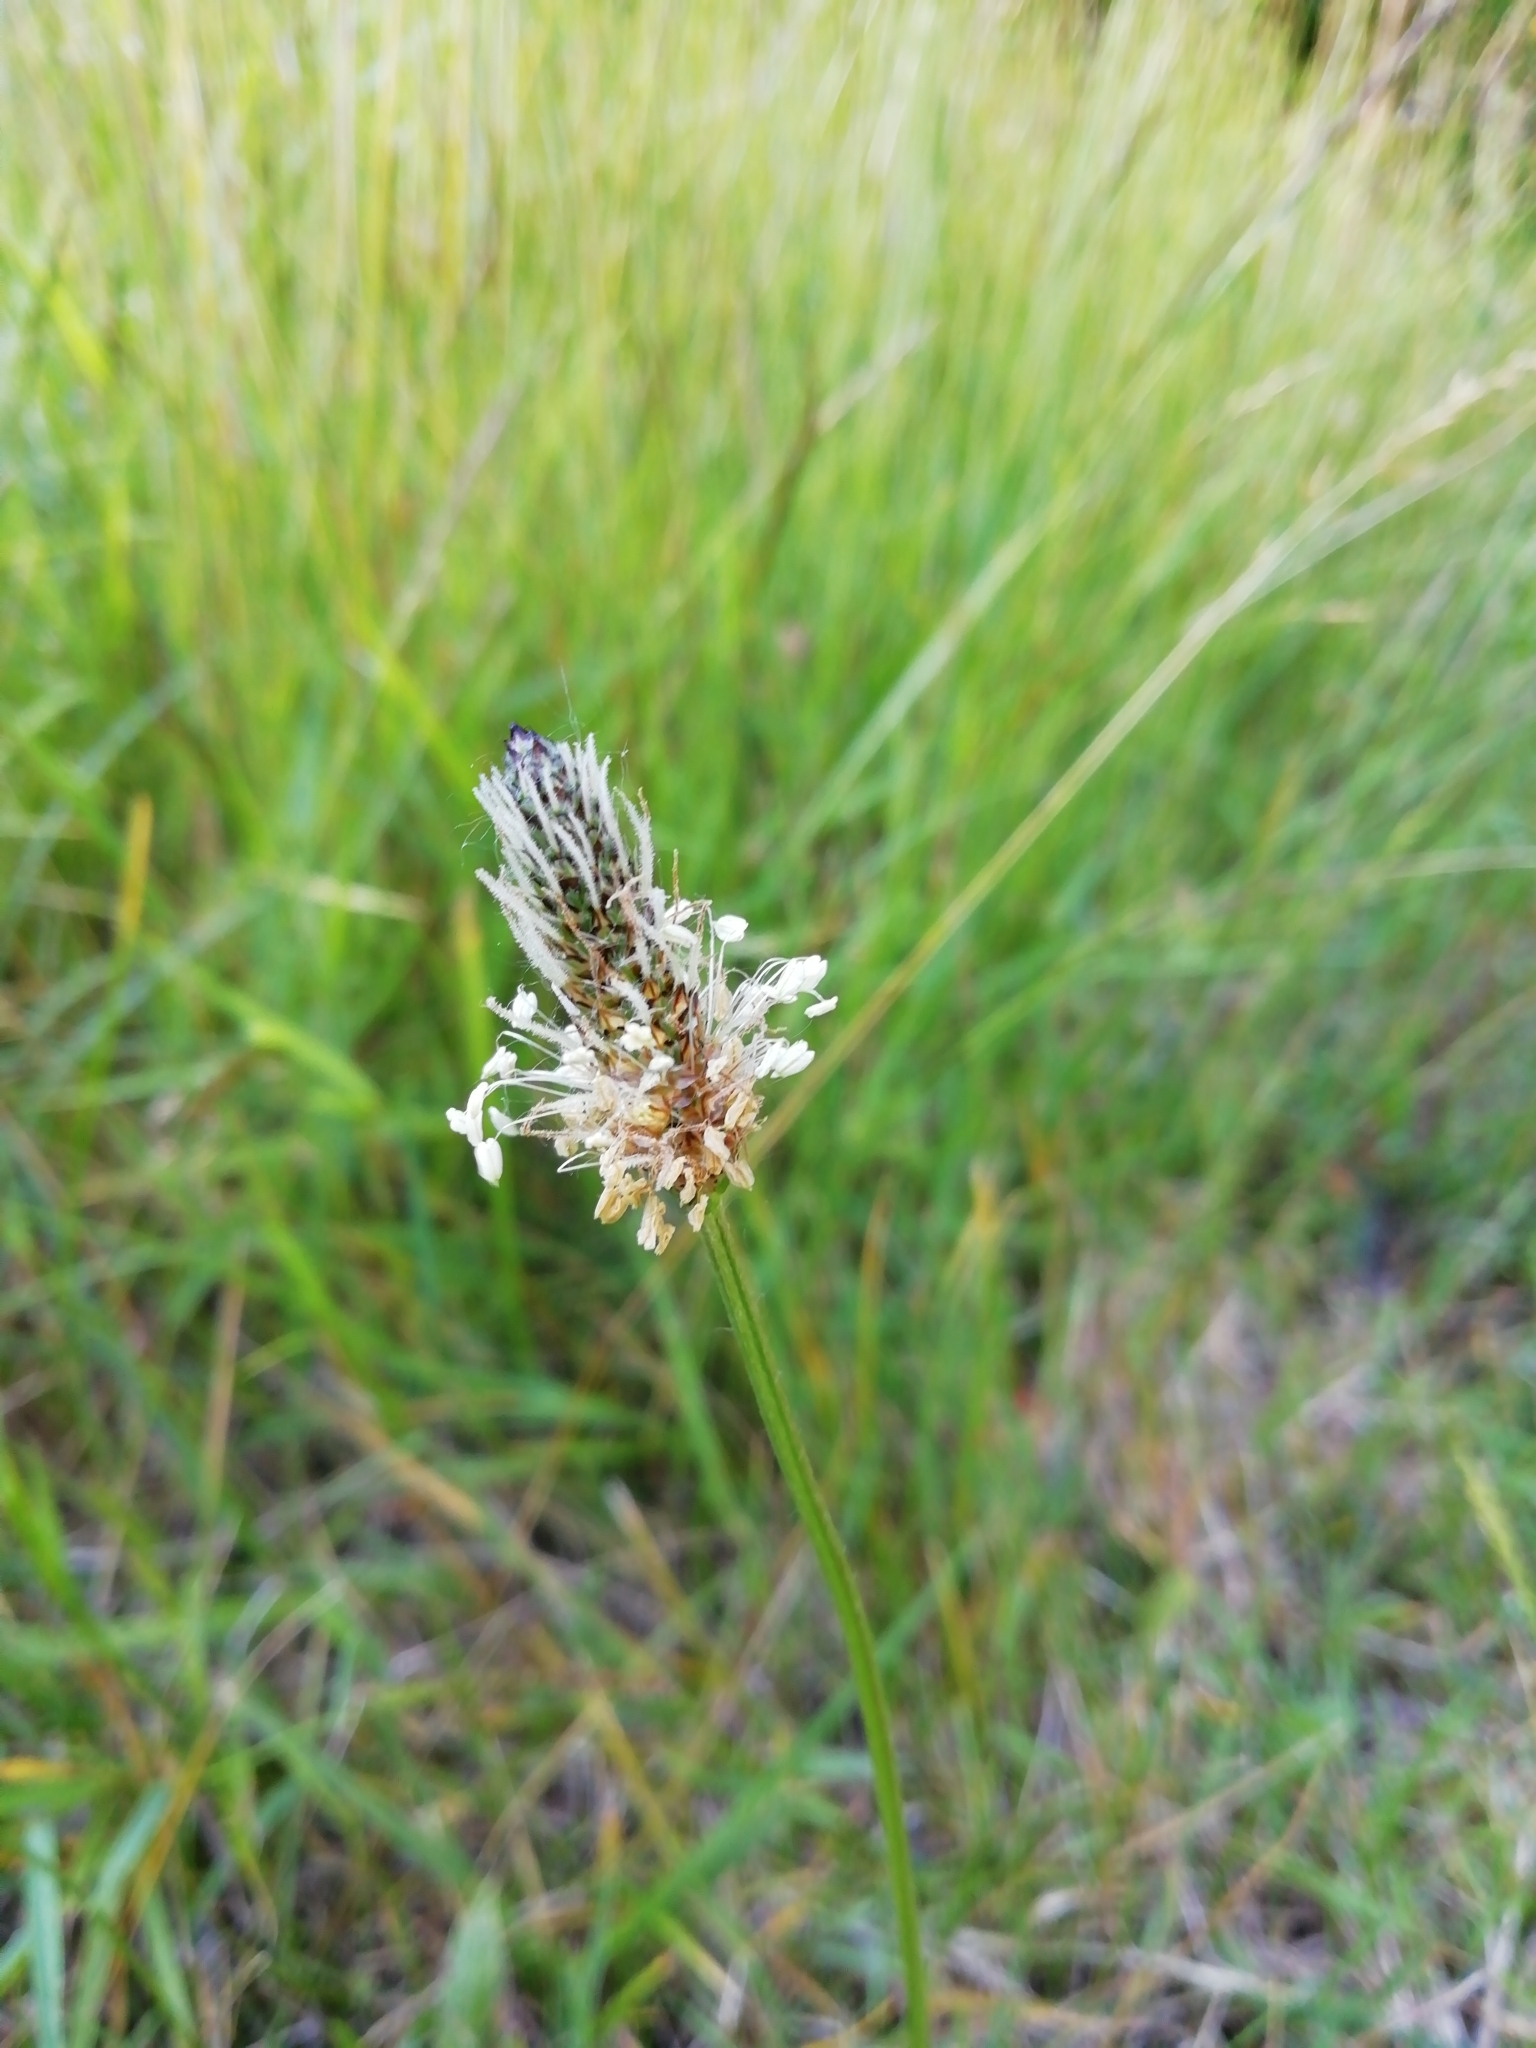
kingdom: Plantae
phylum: Tracheophyta
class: Magnoliopsida
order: Lamiales
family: Plantaginaceae
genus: Plantago
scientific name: Plantago lanceolata
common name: Ribwort plantain
